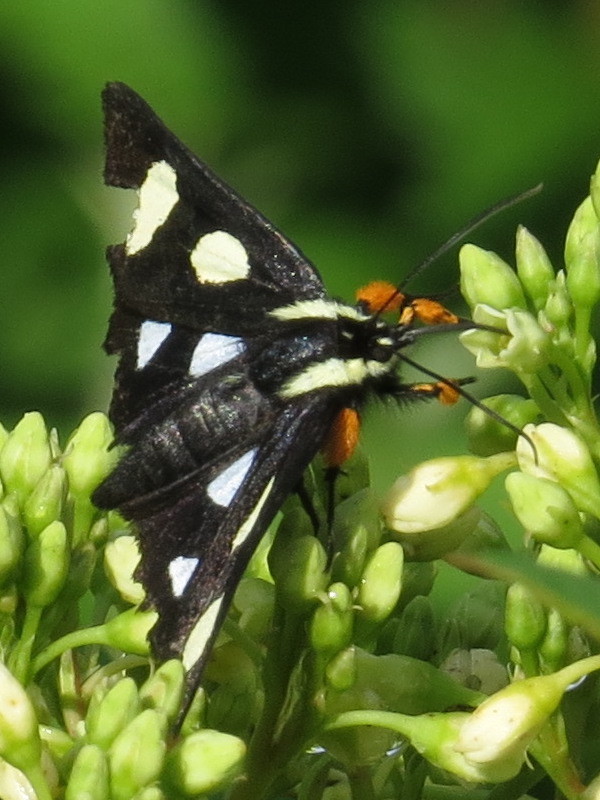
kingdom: Animalia
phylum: Arthropoda
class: Insecta
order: Lepidoptera
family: Noctuidae
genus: Alypia
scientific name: Alypia octomaculata
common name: Eight-spotted forester
